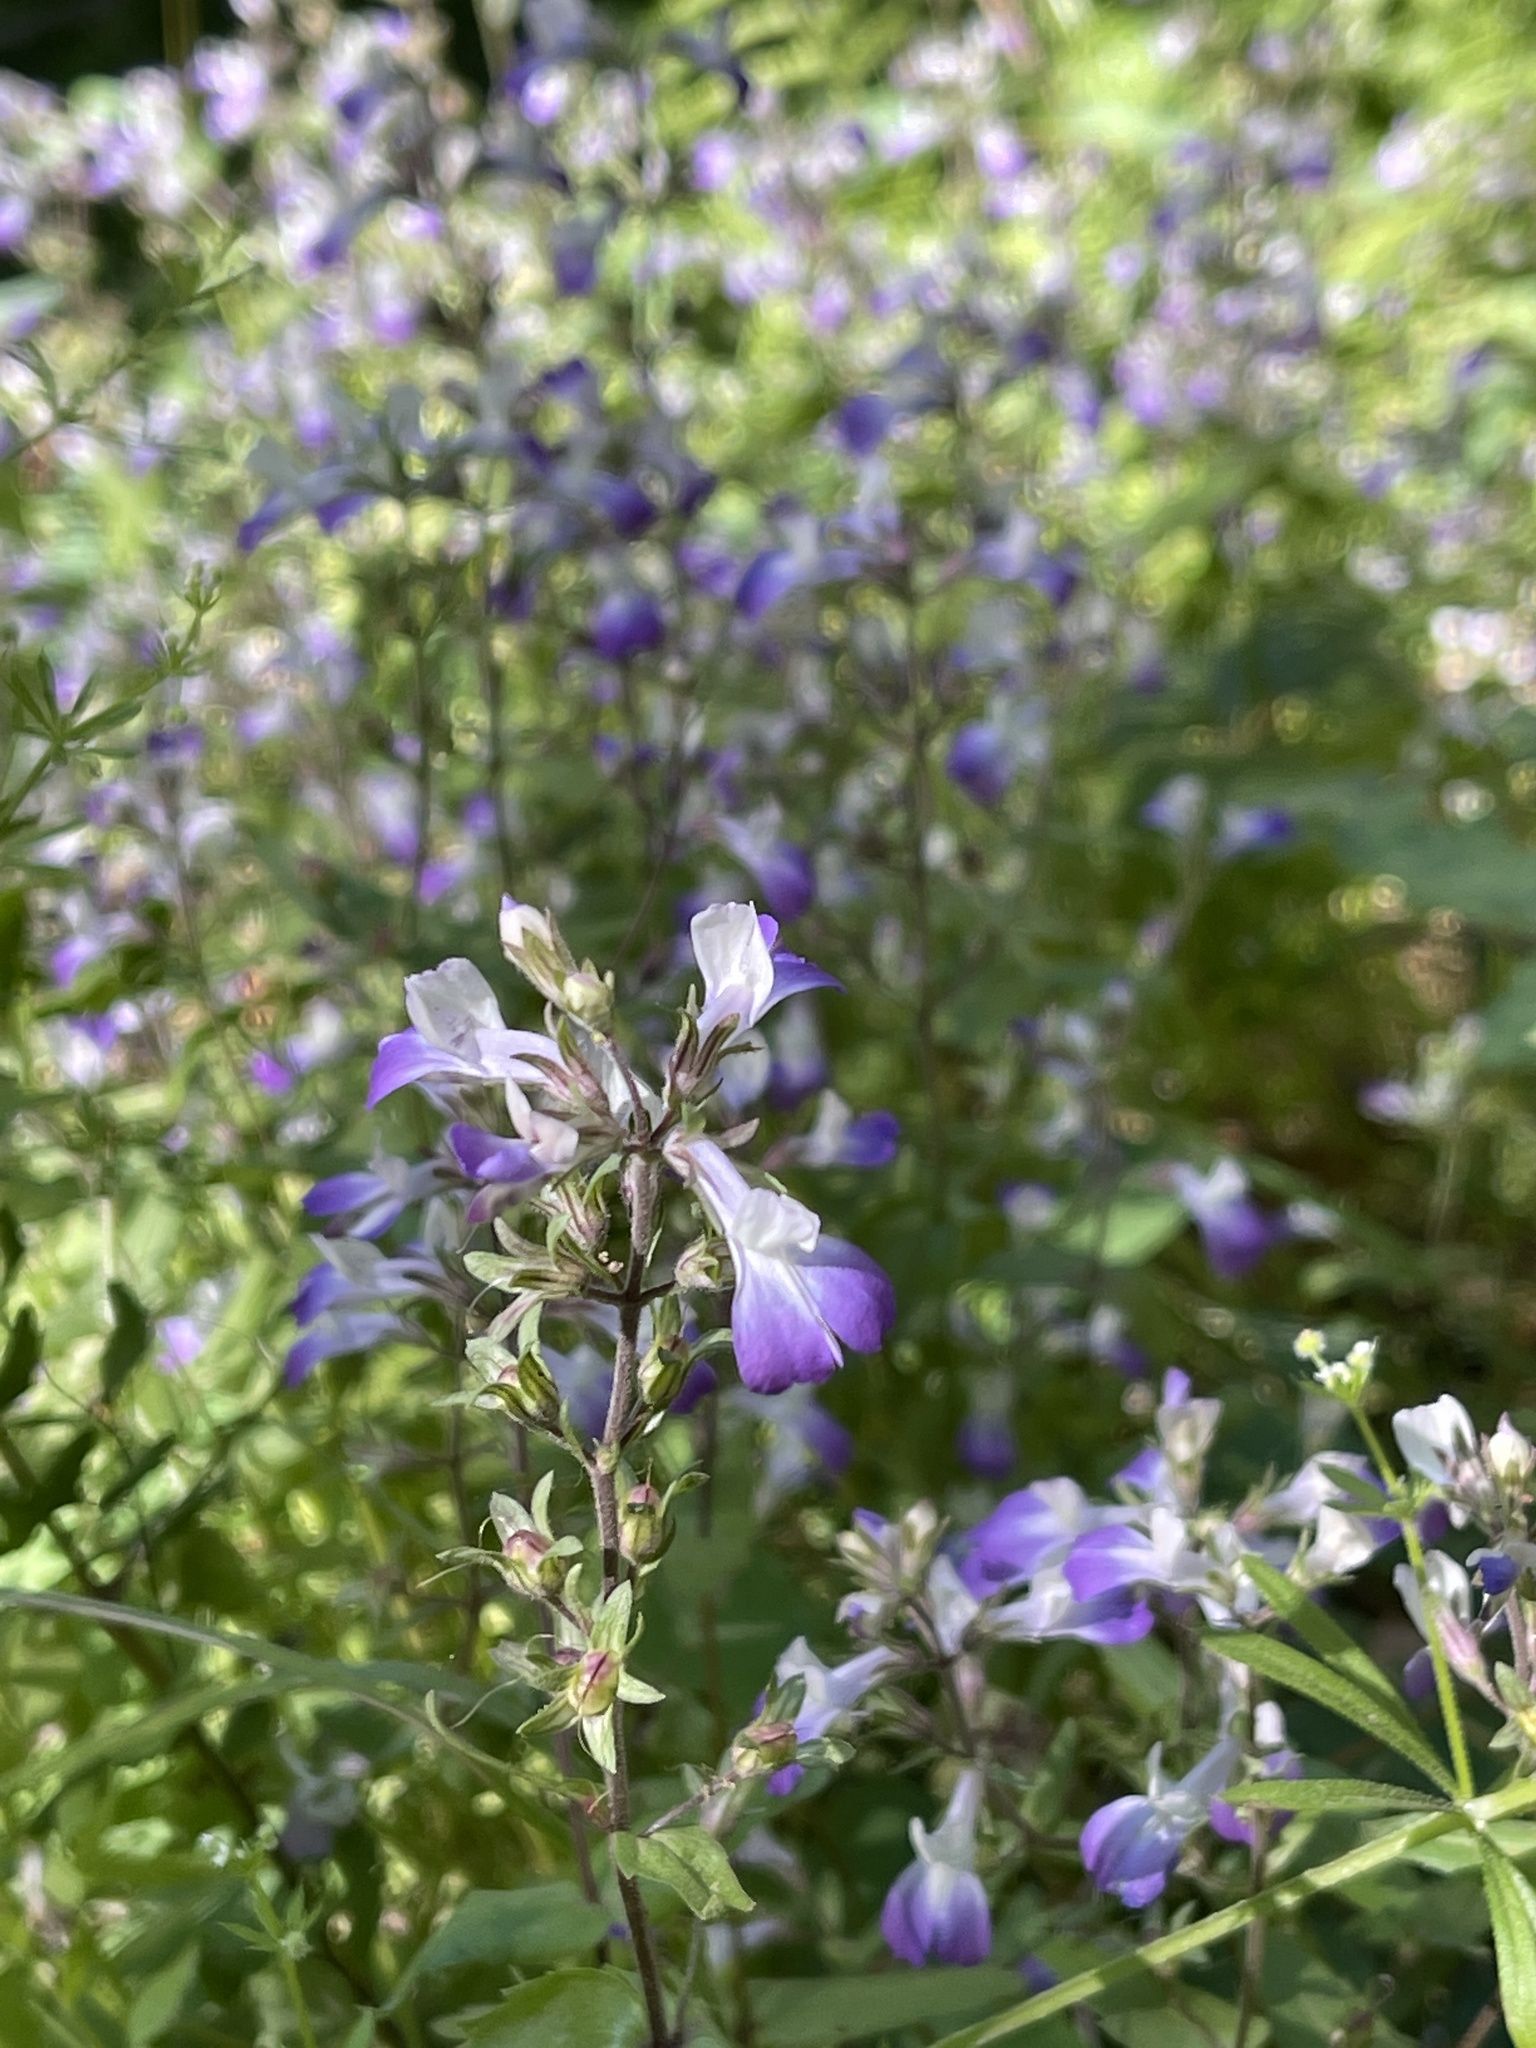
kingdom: Plantae
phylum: Tracheophyta
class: Magnoliopsida
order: Lamiales
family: Plantaginaceae
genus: Collinsia
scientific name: Collinsia multicolor
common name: San francisco collinsia
